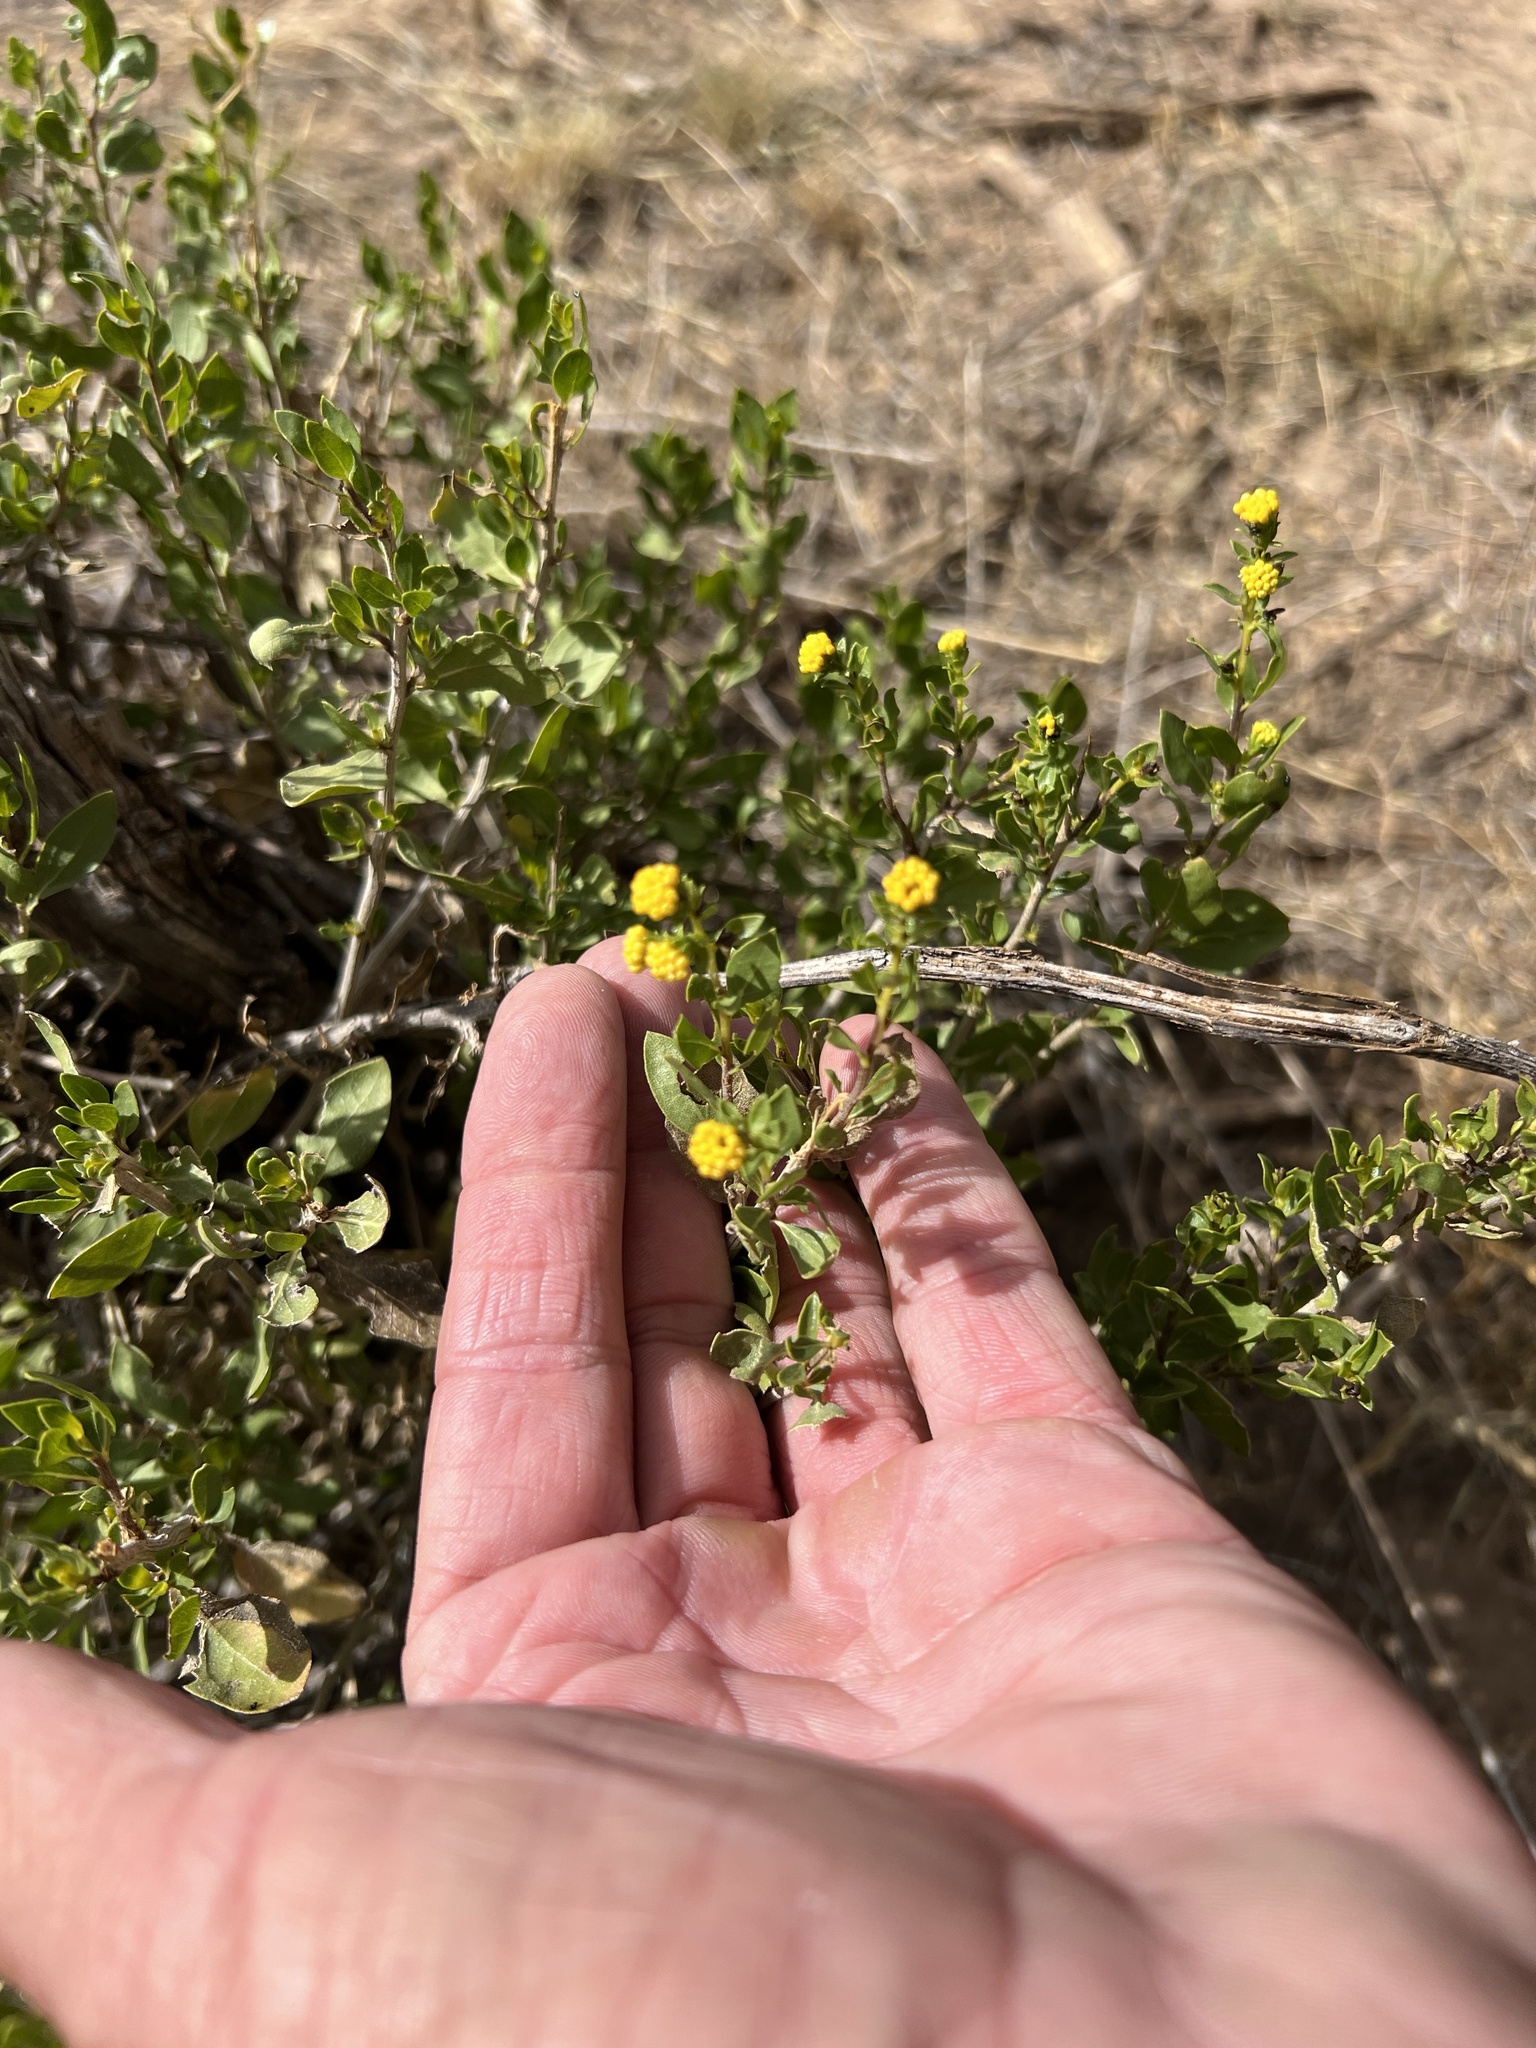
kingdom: Plantae
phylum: Tracheophyta
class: Magnoliopsida
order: Asterales
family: Asteraceae
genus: Flourensia
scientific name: Flourensia cernua
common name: Varnishbush
